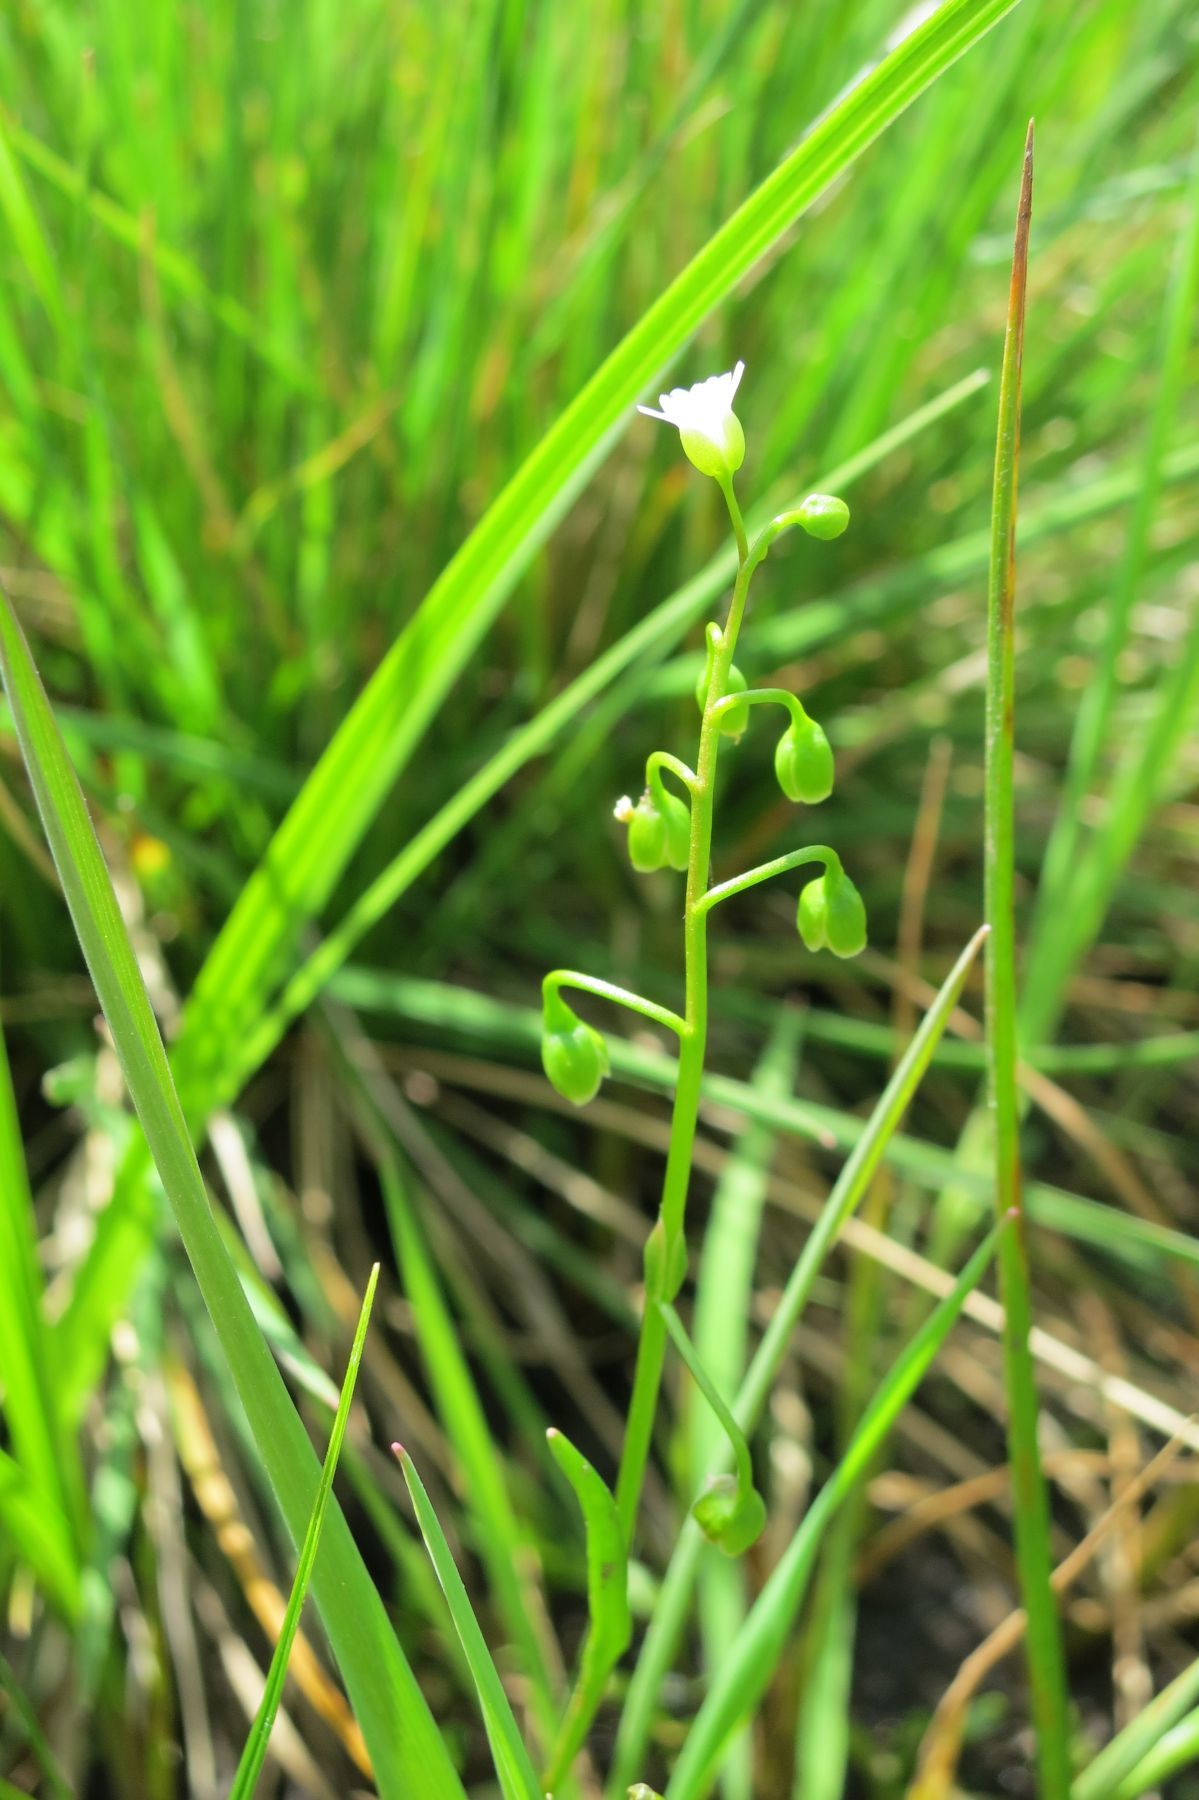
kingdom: Plantae
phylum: Tracheophyta
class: Magnoliopsida
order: Caryophyllales
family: Montiaceae
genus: Montia
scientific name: Montia linearis
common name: Narrow-leaf montia
